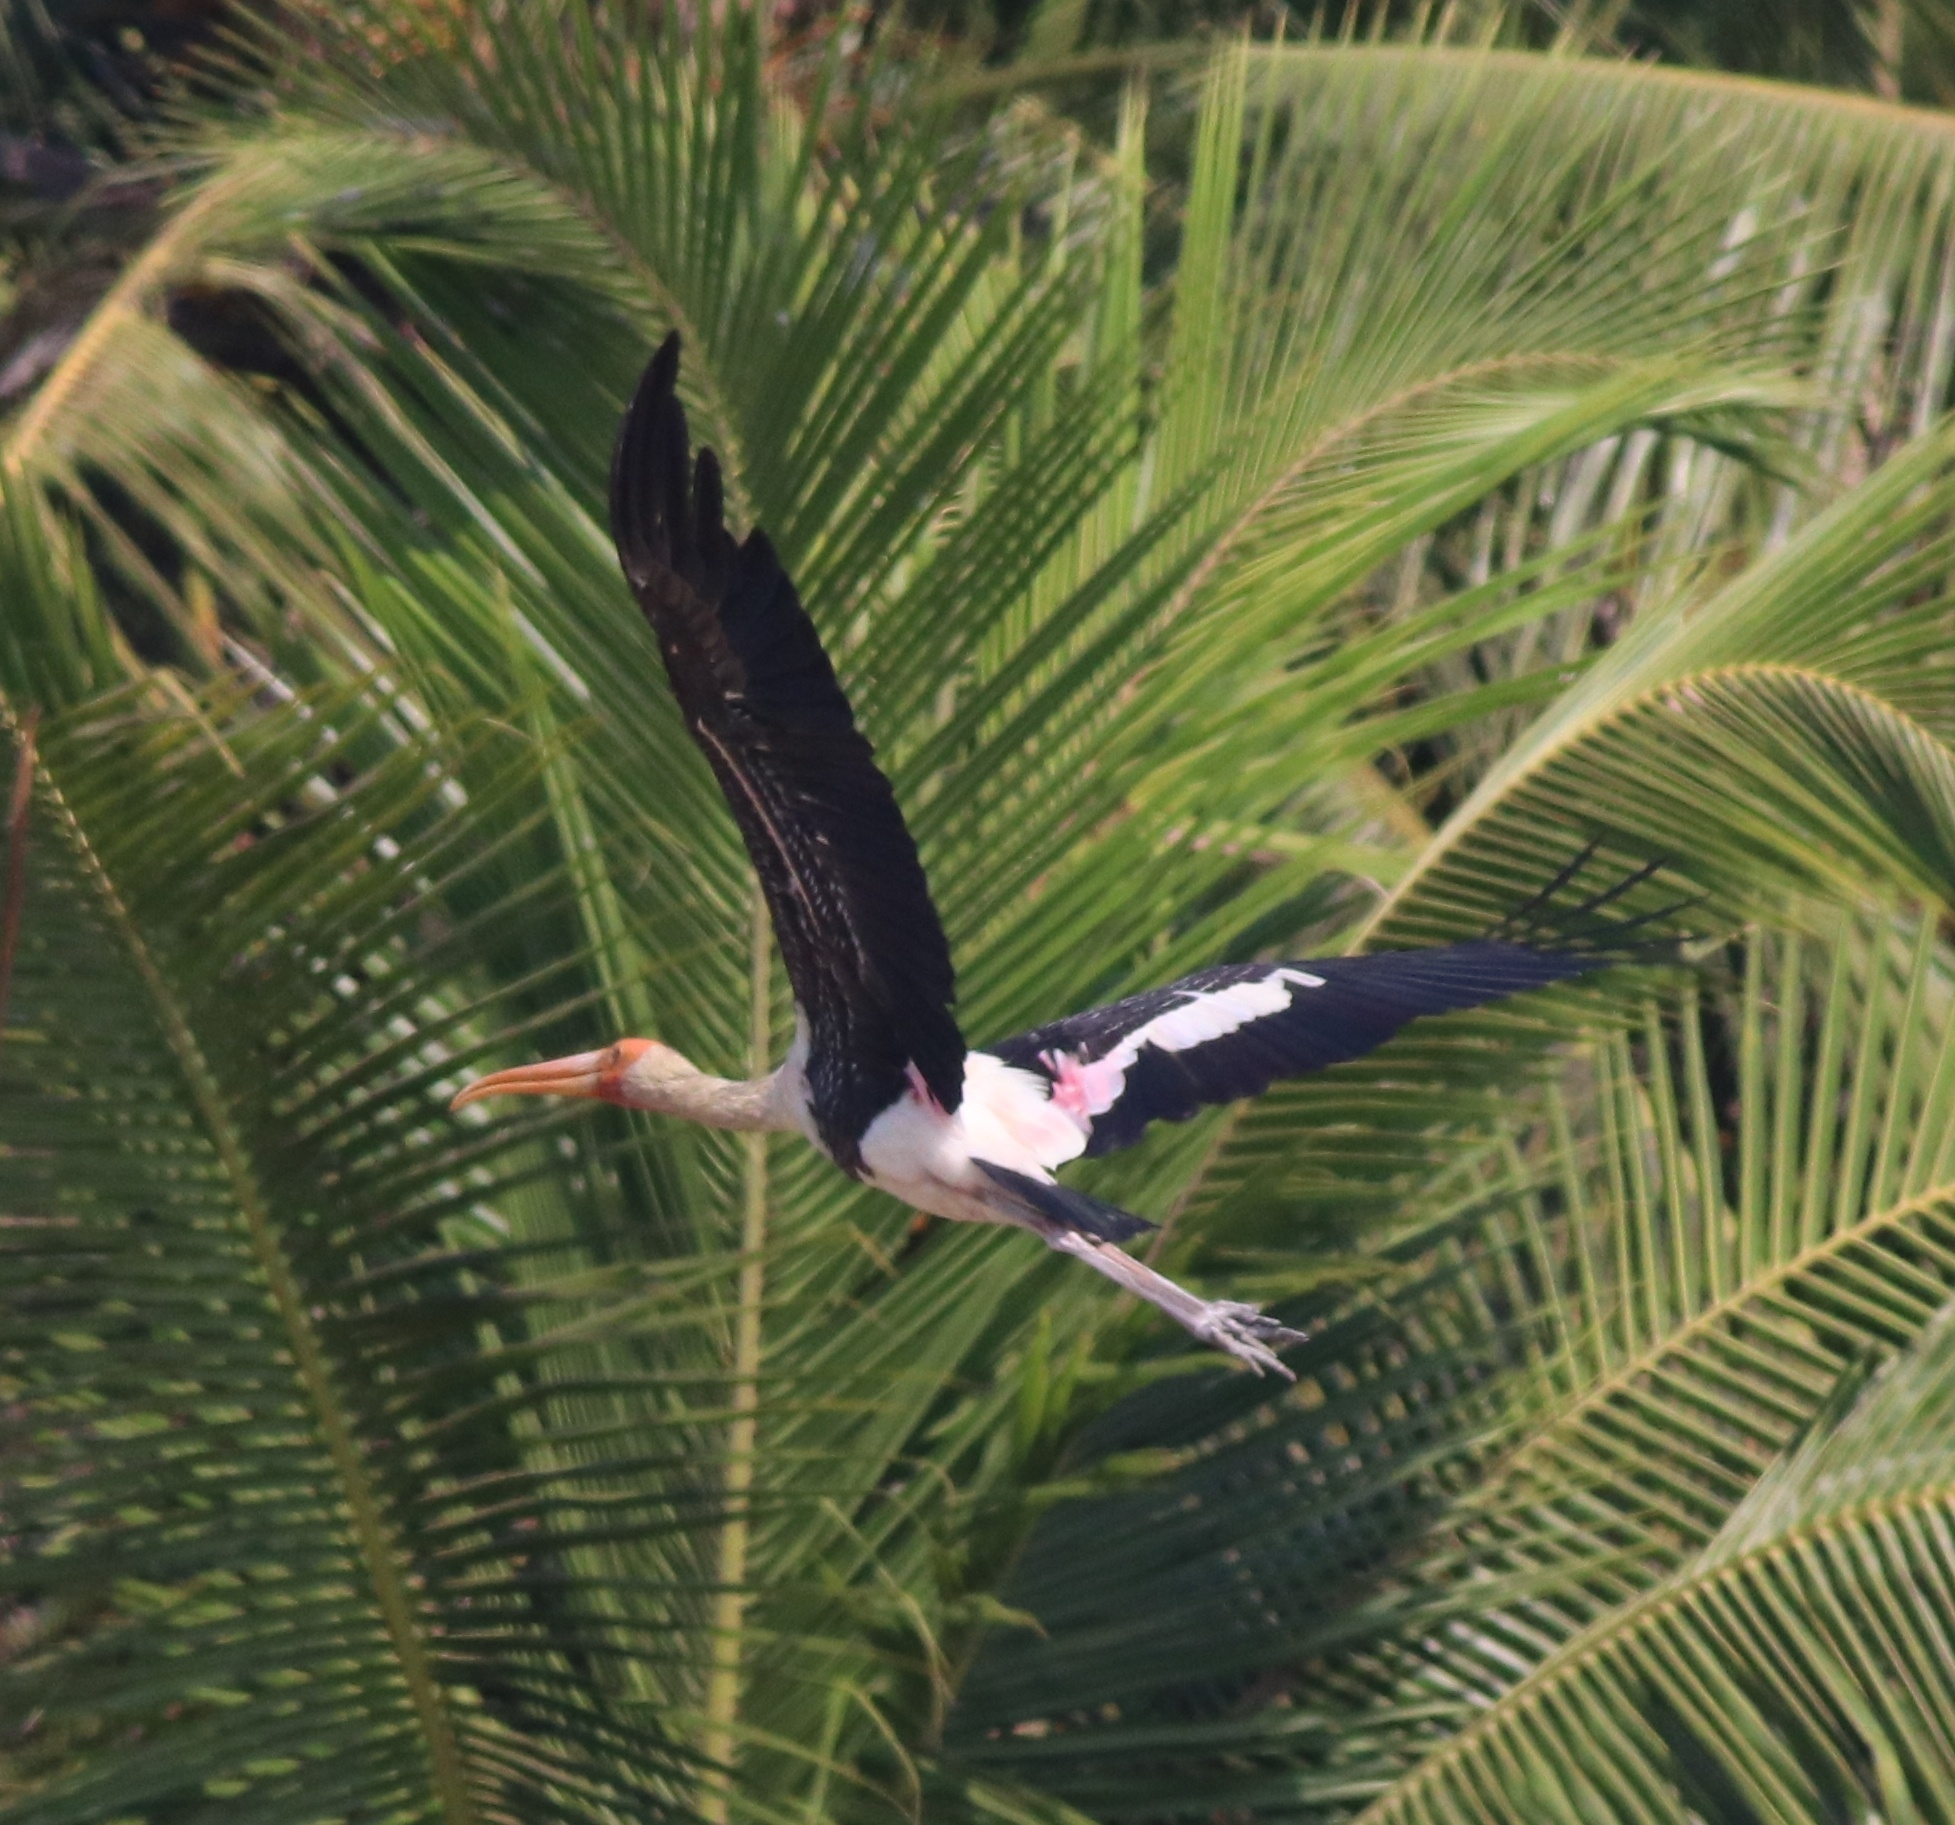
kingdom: Animalia
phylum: Chordata
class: Aves
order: Ciconiiformes
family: Ciconiidae
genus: Mycteria
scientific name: Mycteria leucocephala
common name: Painted stork
